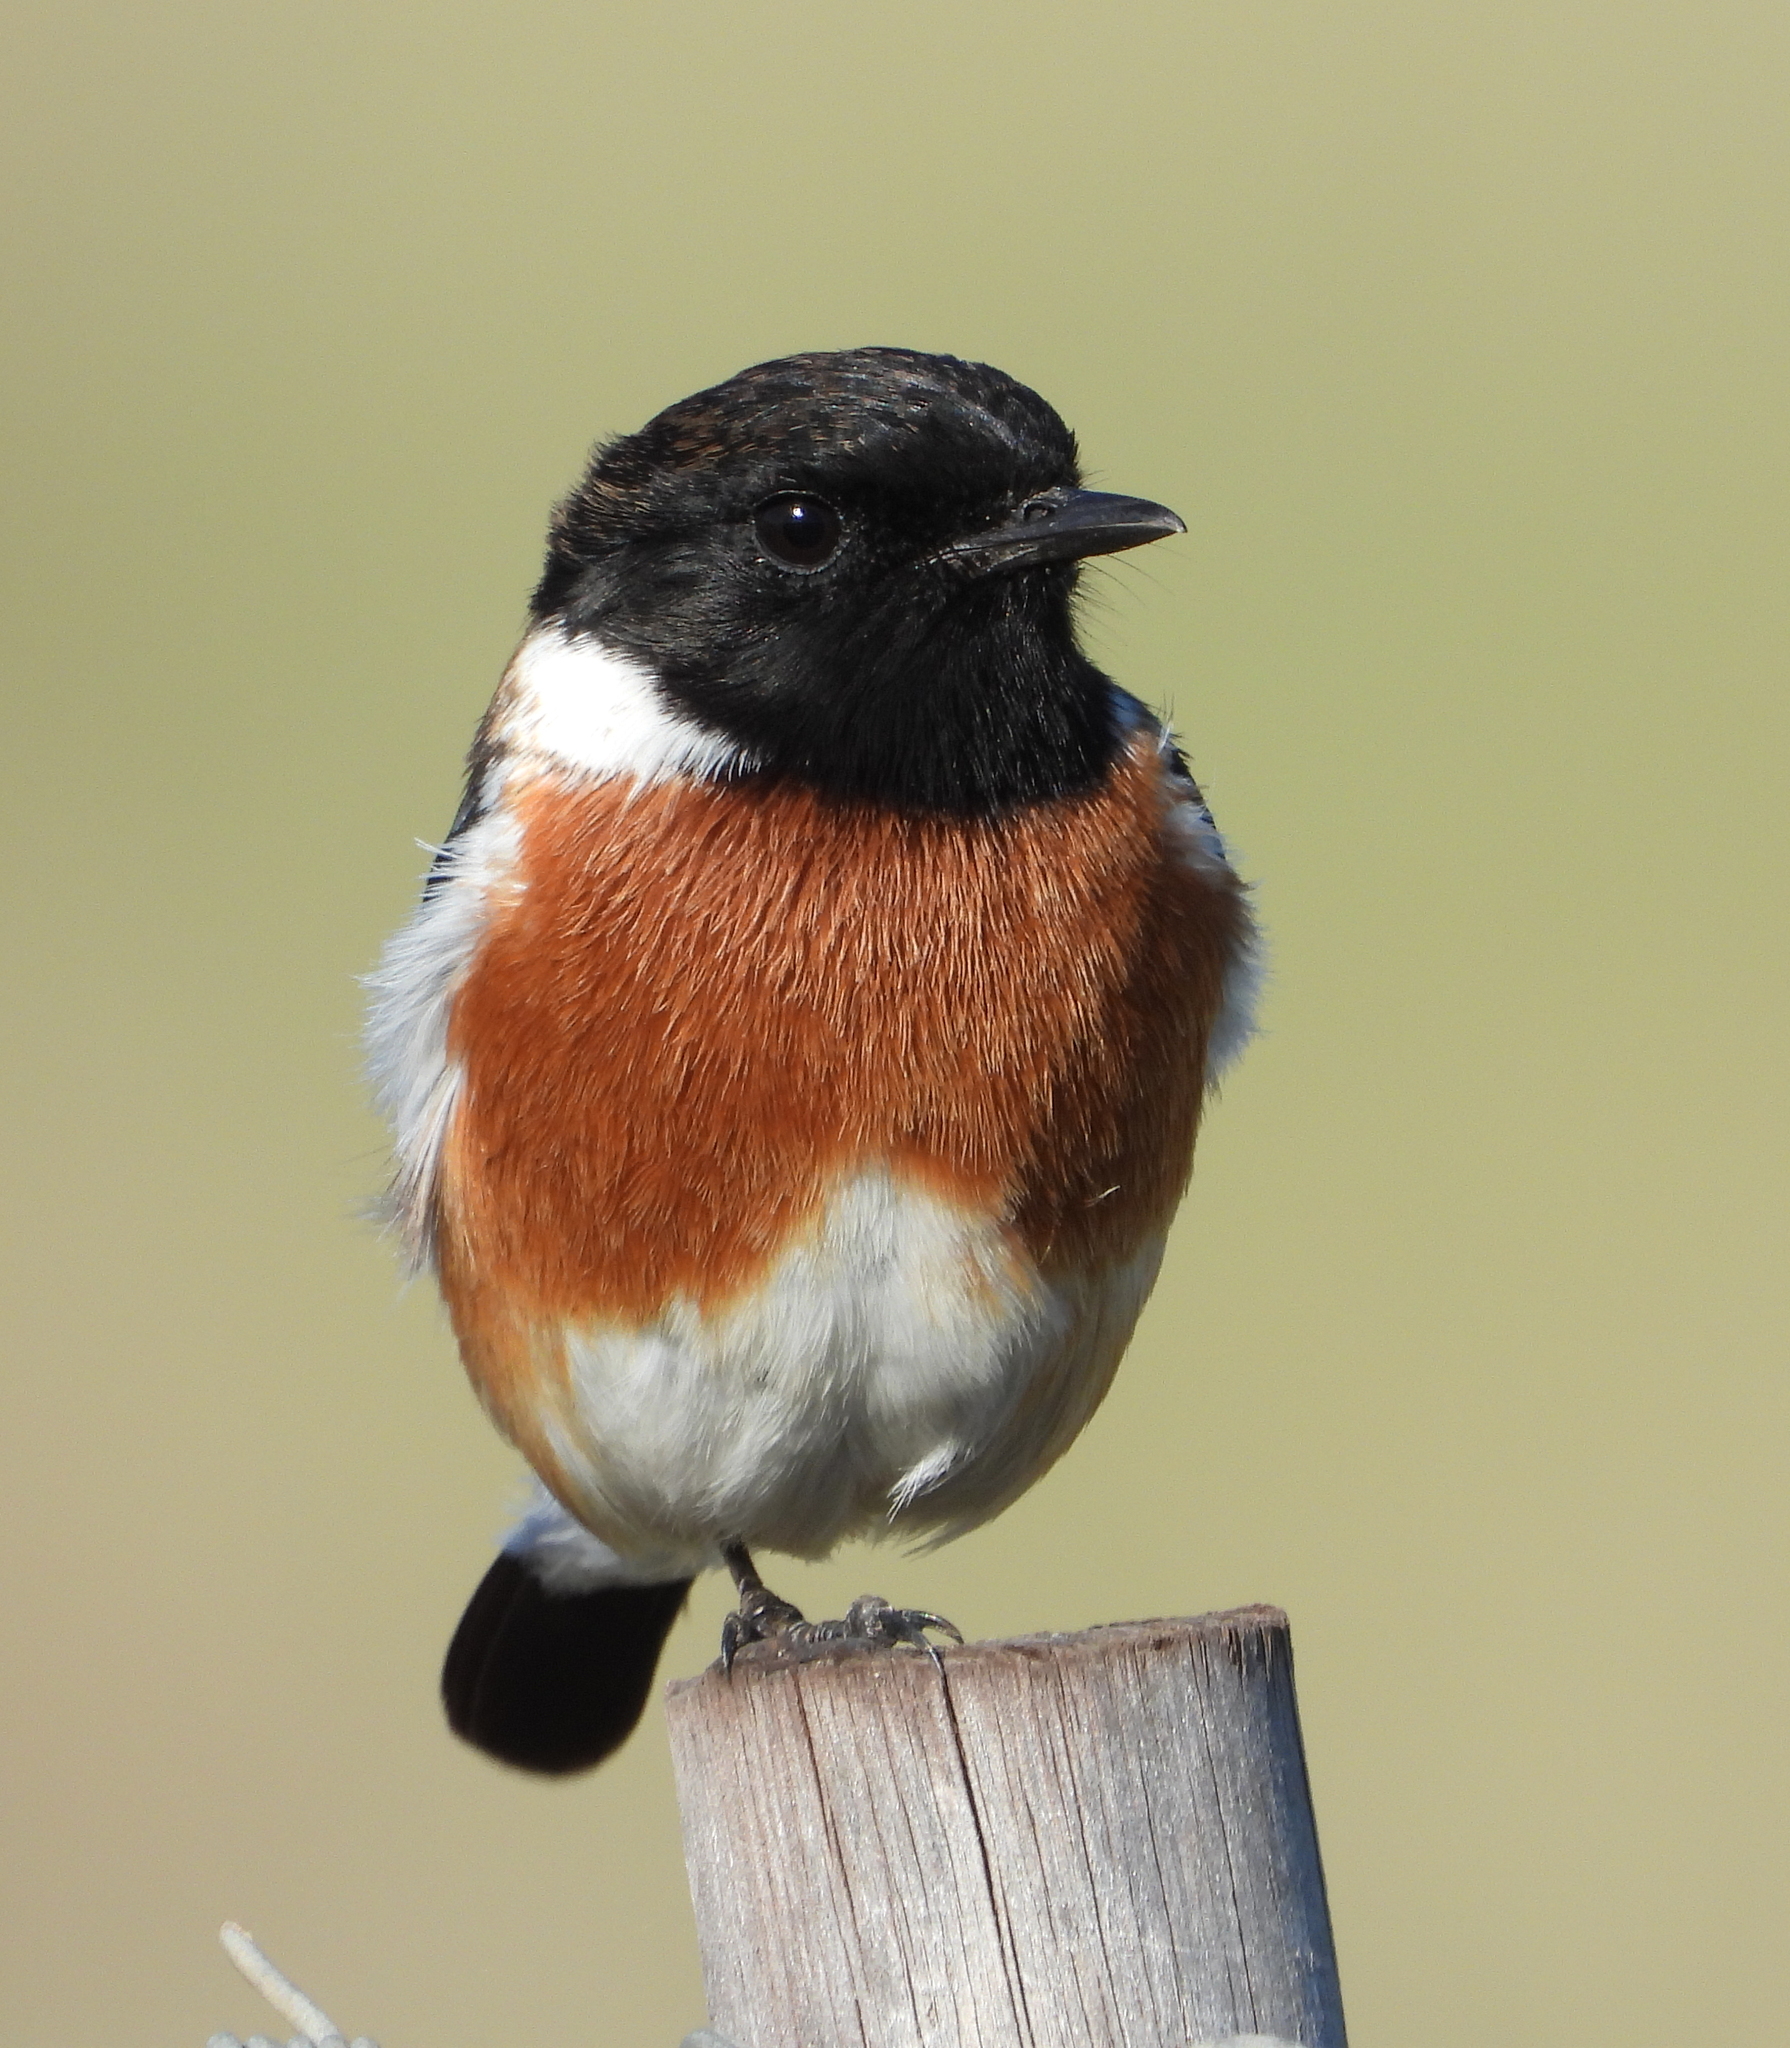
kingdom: Animalia
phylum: Chordata
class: Aves
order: Passeriformes
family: Muscicapidae
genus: Saxicola
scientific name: Saxicola torquatus
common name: African stonechat
